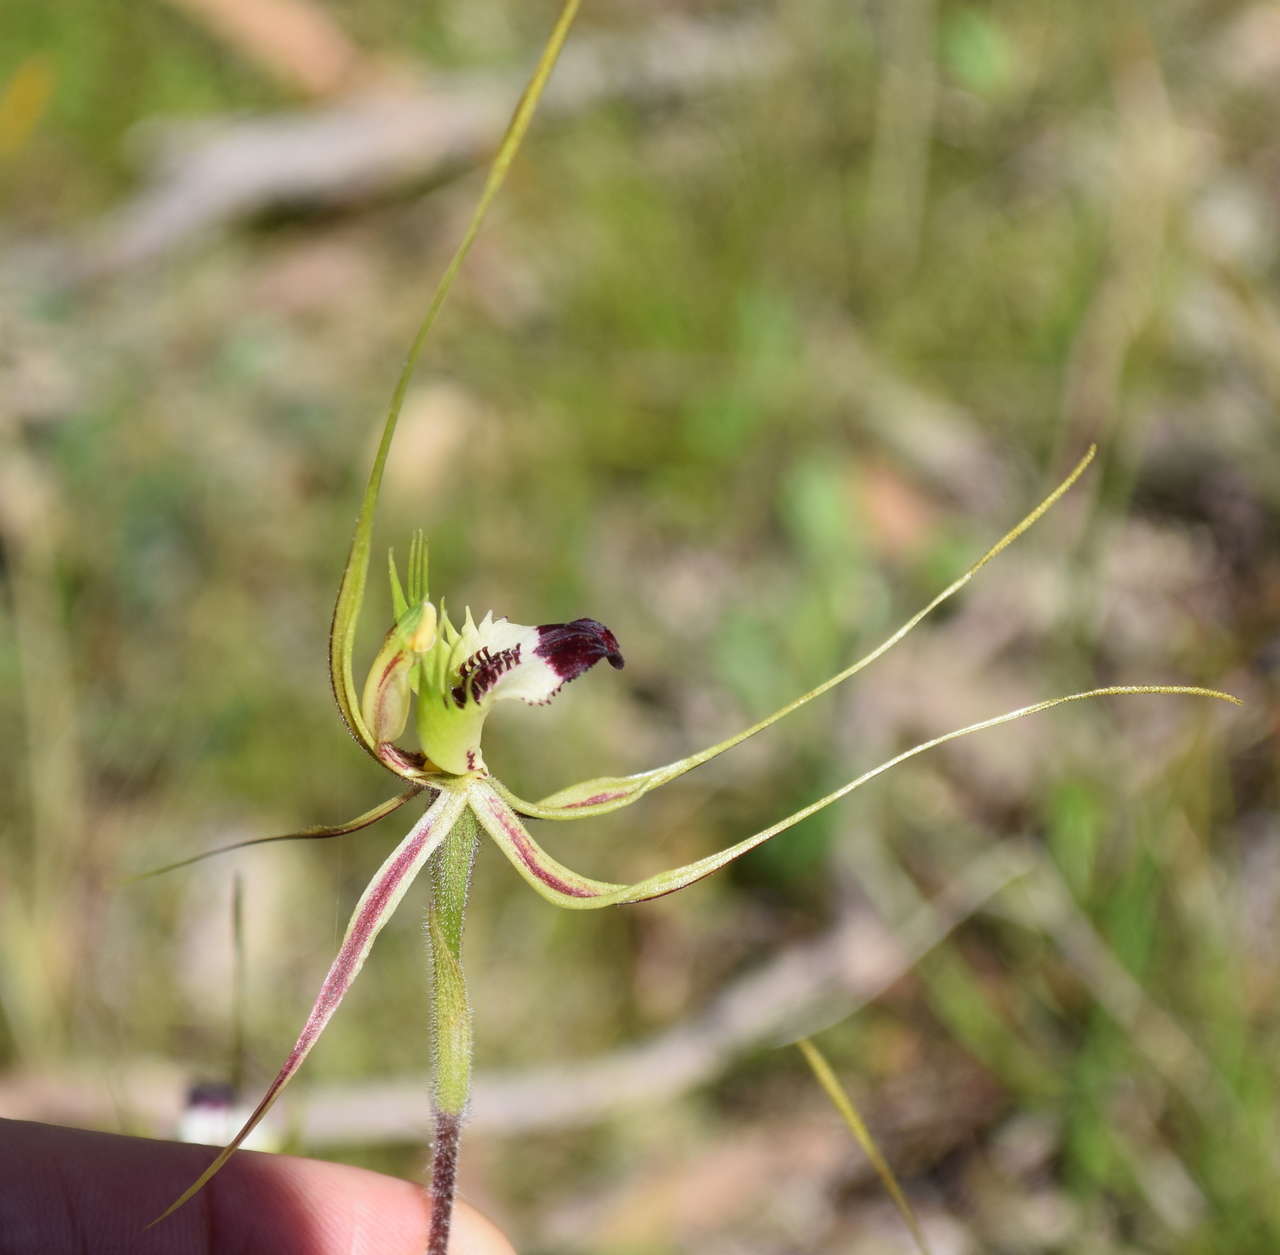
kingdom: Plantae
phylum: Tracheophyta
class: Liliopsida
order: Asparagales
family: Orchidaceae
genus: Caladenia
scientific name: Caladenia tentaculata
